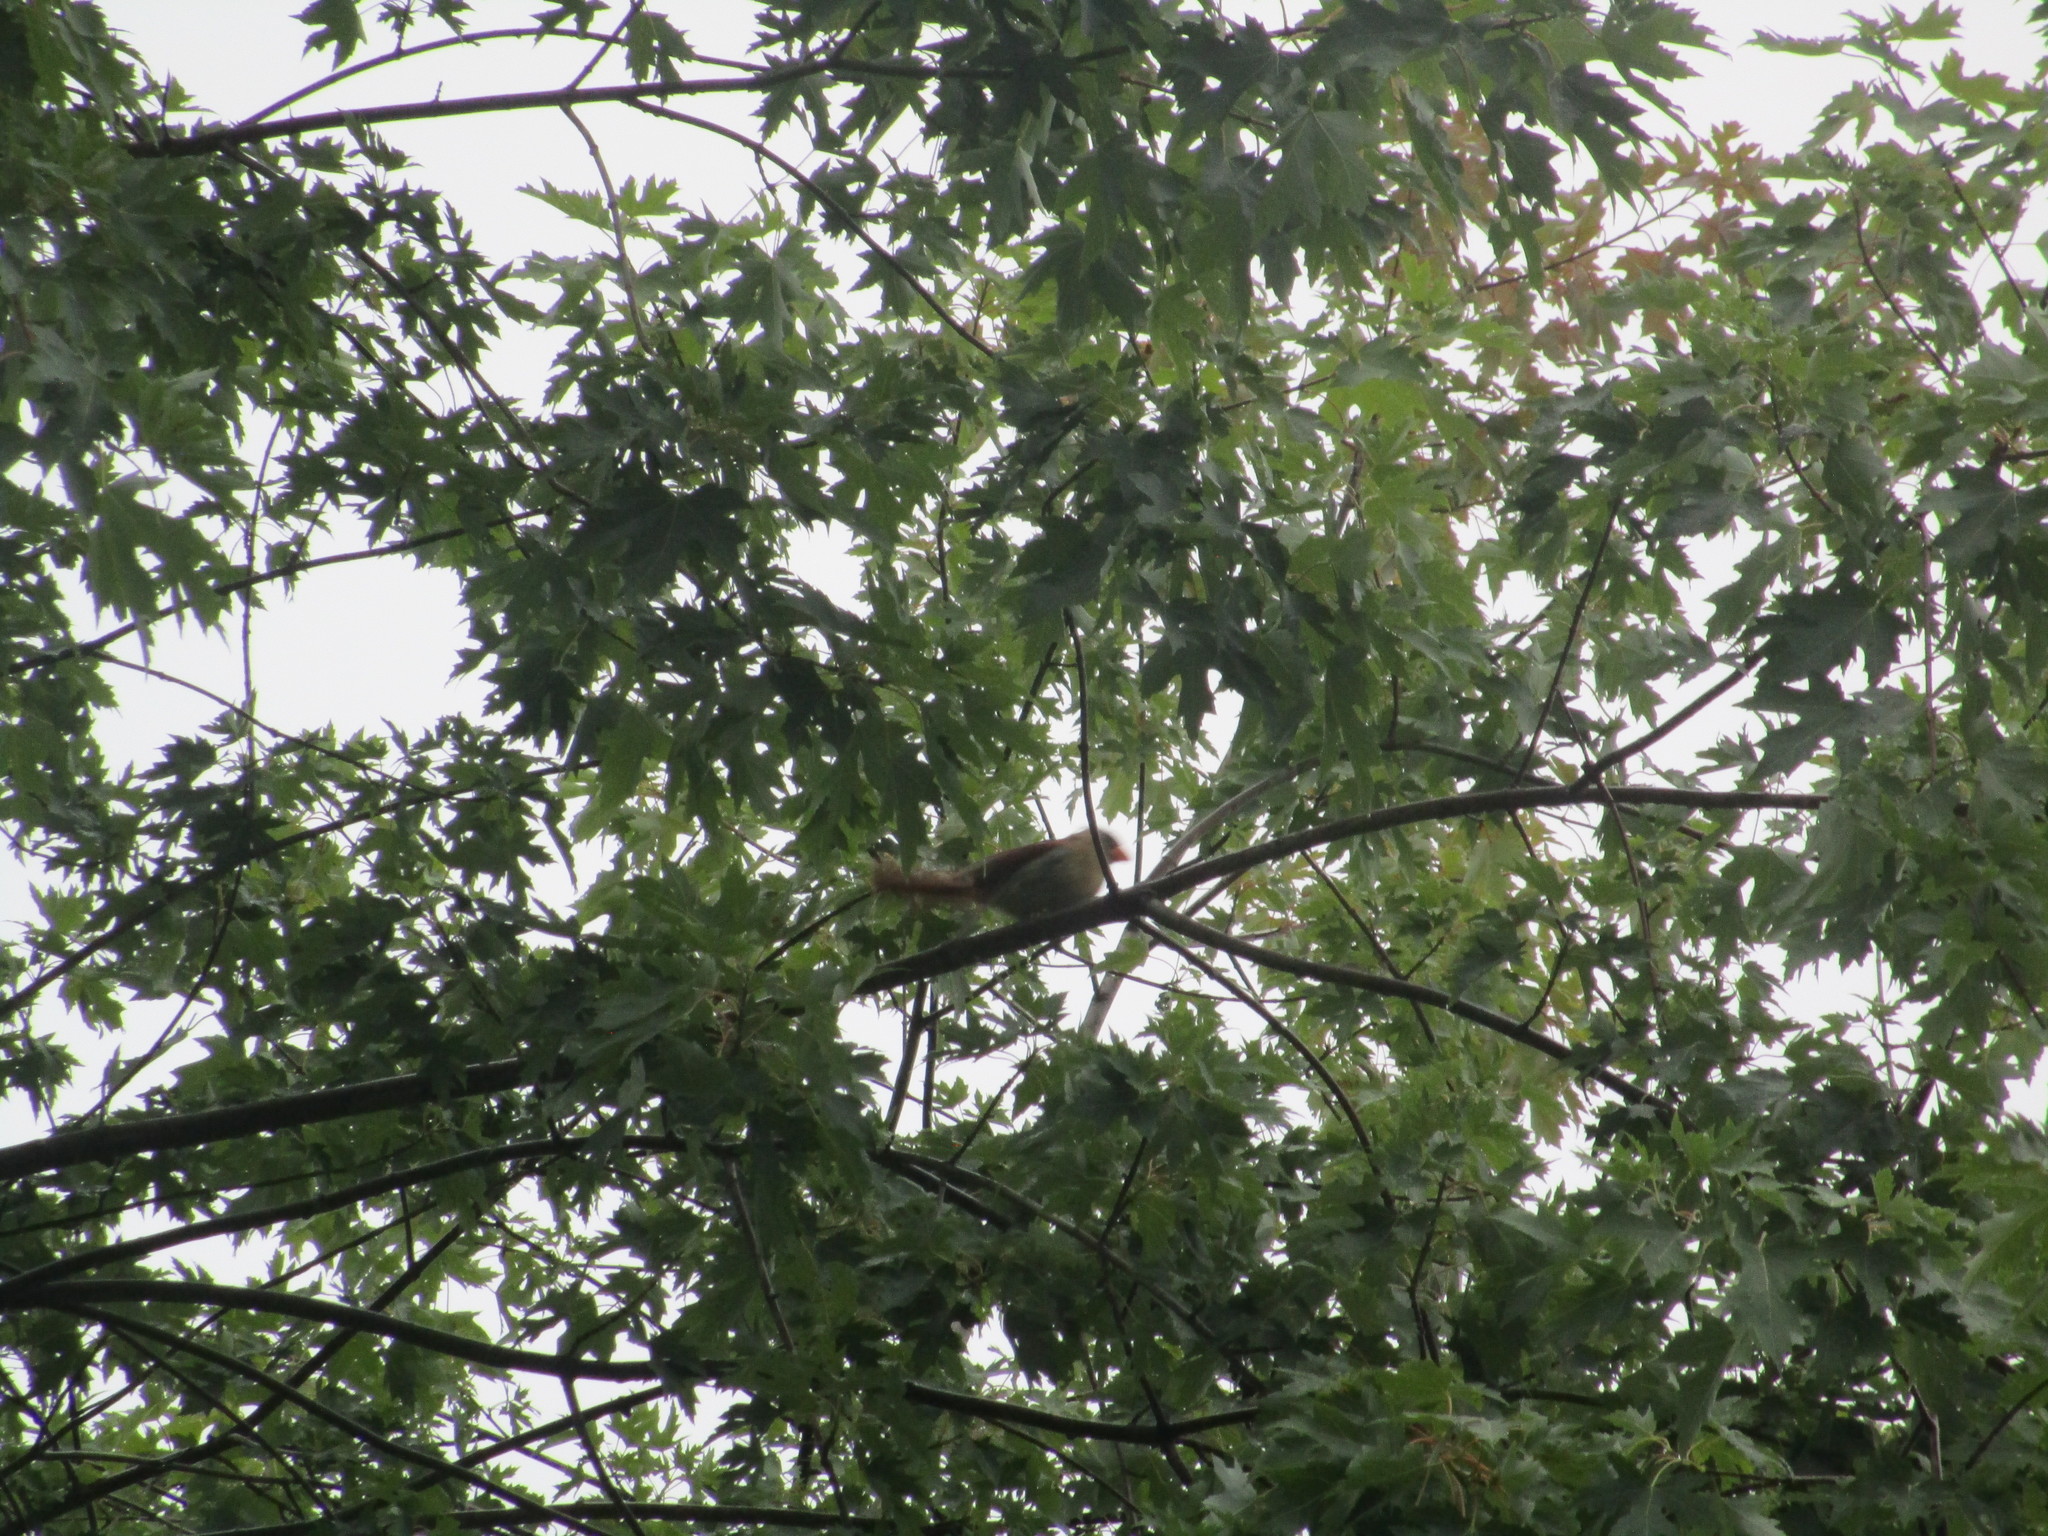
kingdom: Animalia
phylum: Chordata
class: Aves
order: Passeriformes
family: Cardinalidae
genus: Cardinalis
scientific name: Cardinalis cardinalis
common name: Northern cardinal
